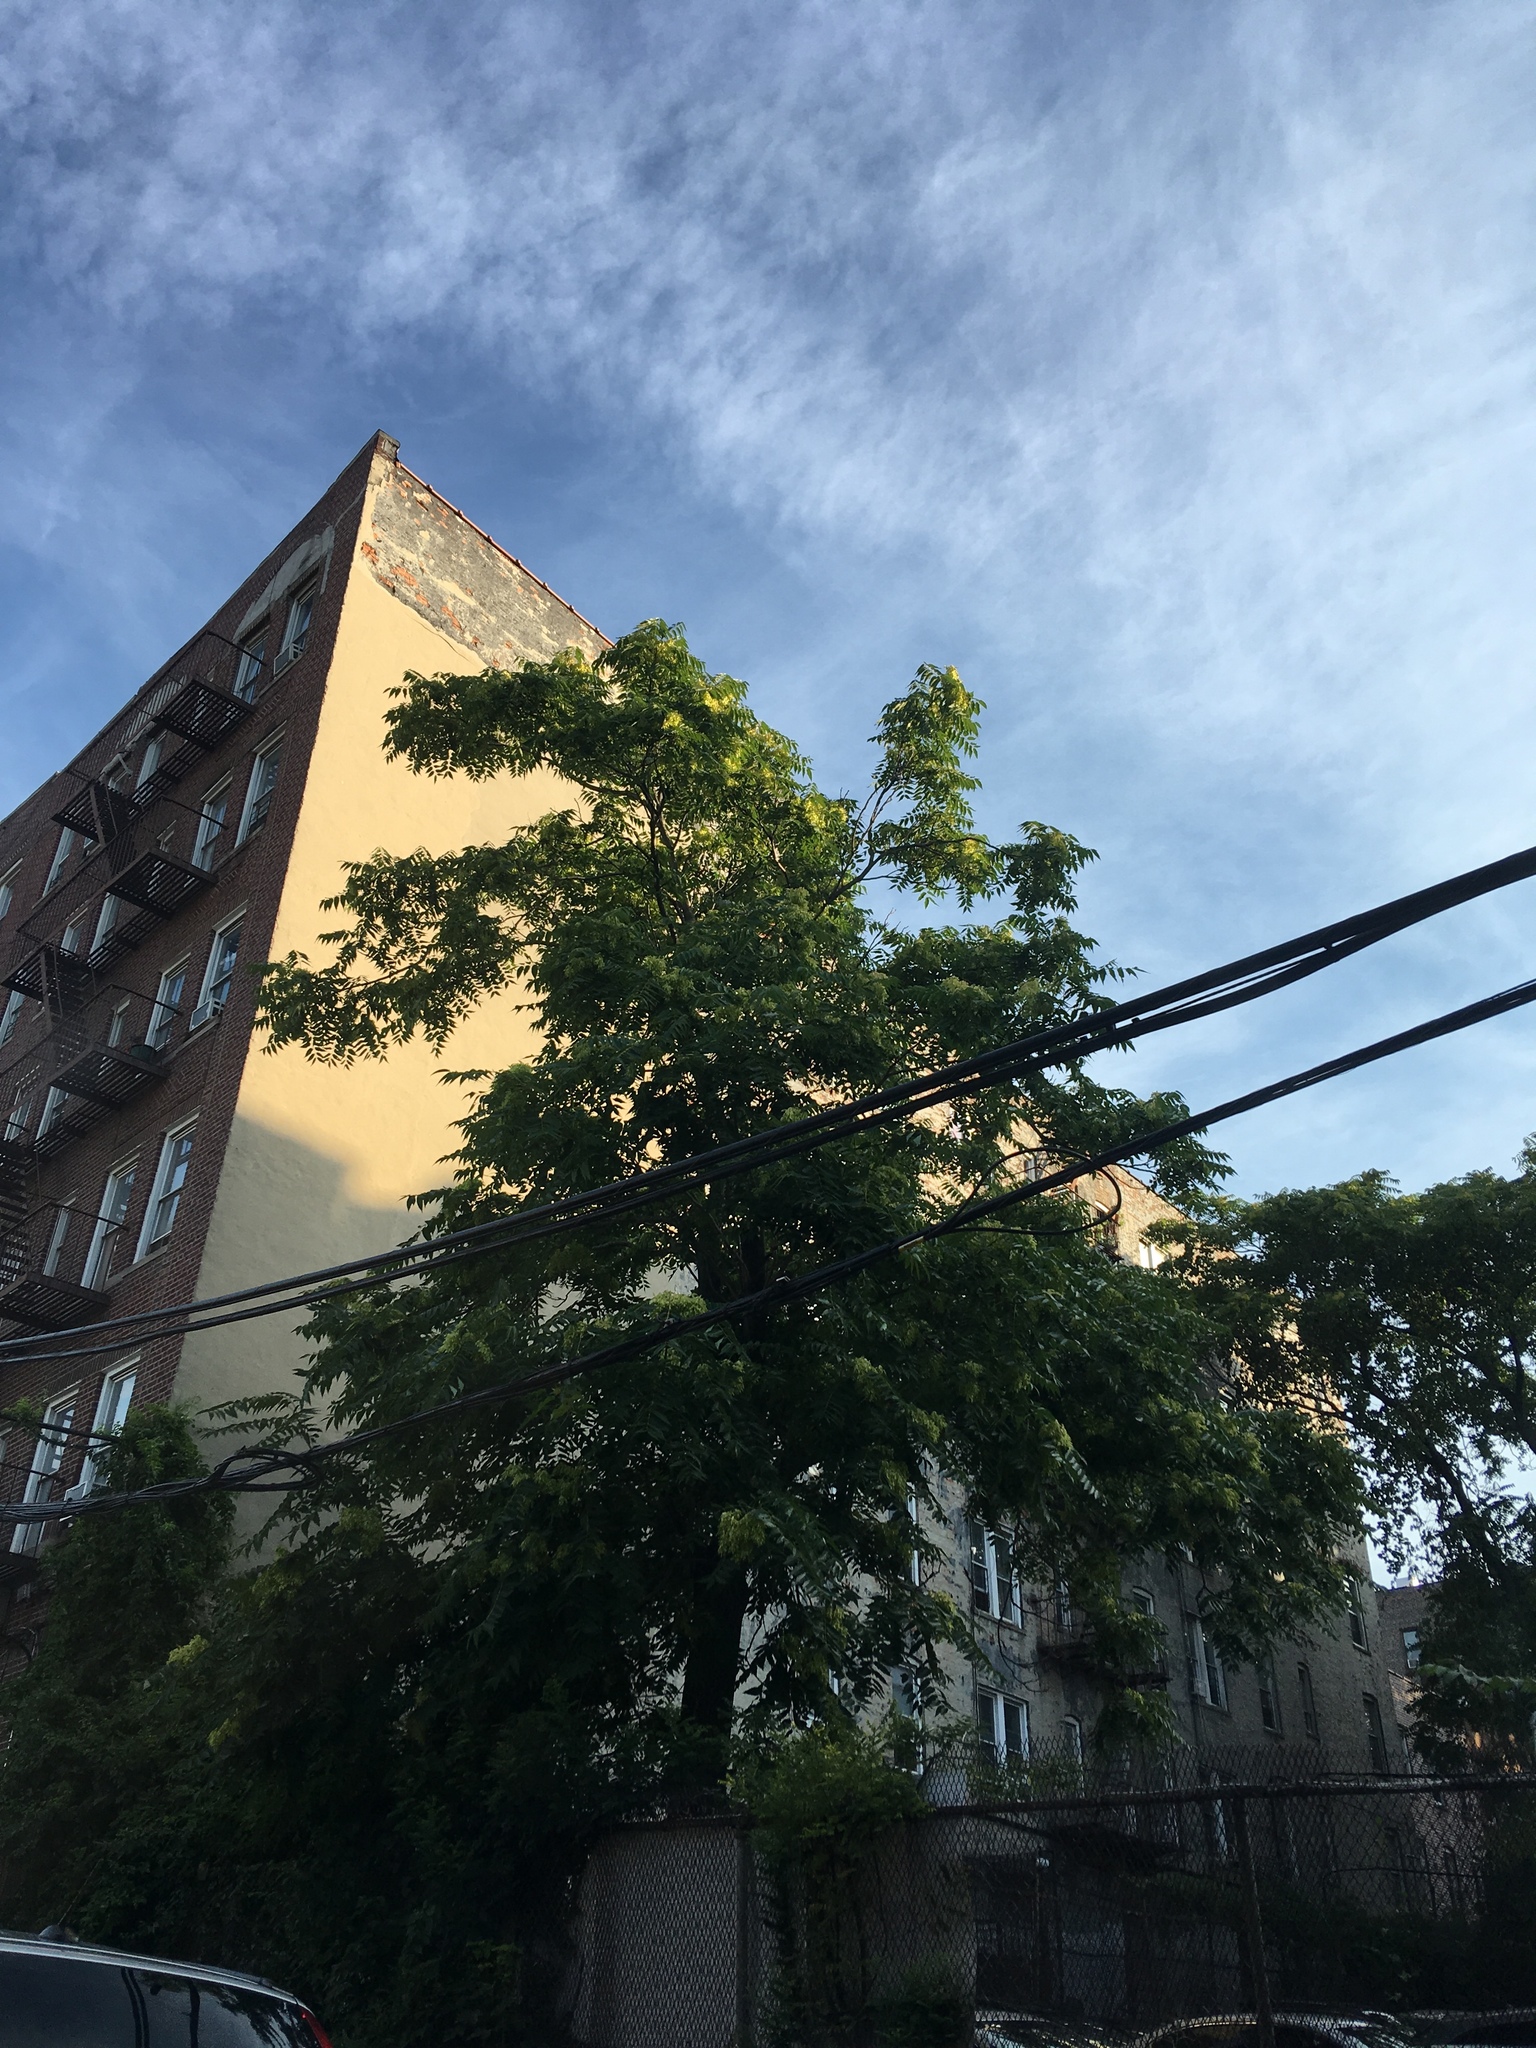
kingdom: Plantae
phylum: Tracheophyta
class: Magnoliopsida
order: Sapindales
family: Simaroubaceae
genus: Ailanthus
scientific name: Ailanthus altissima
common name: Tree-of-heaven
